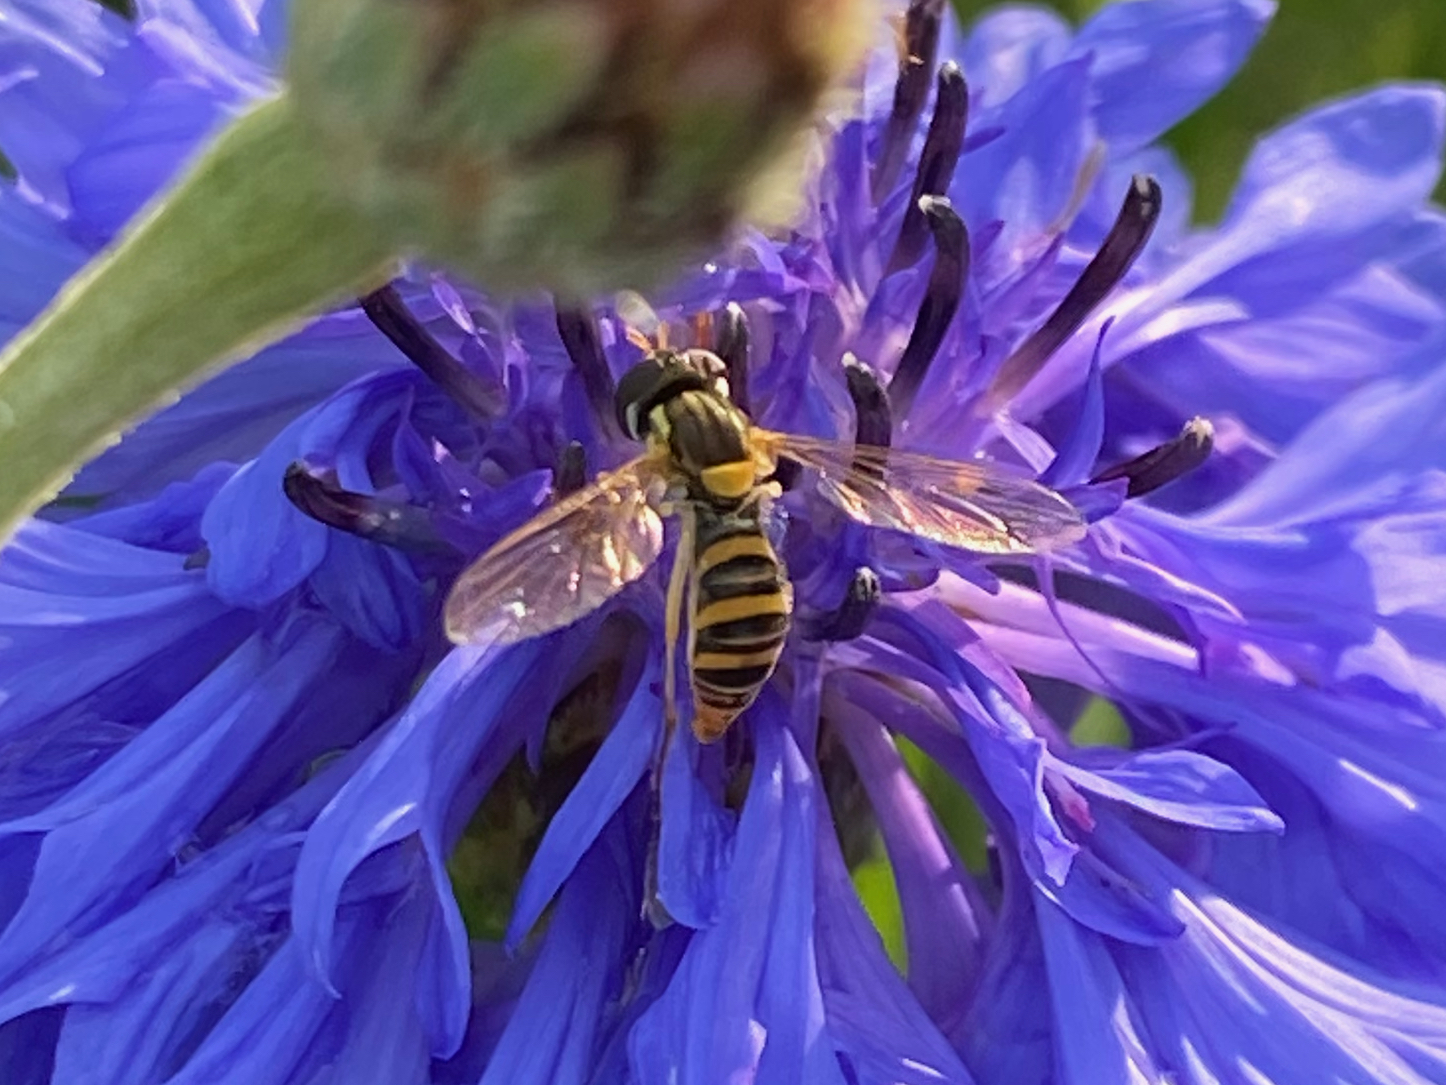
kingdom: Animalia
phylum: Arthropoda
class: Insecta
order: Diptera
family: Syrphidae
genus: Sphaerophoria
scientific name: Sphaerophoria contigua
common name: Tufted globetail
